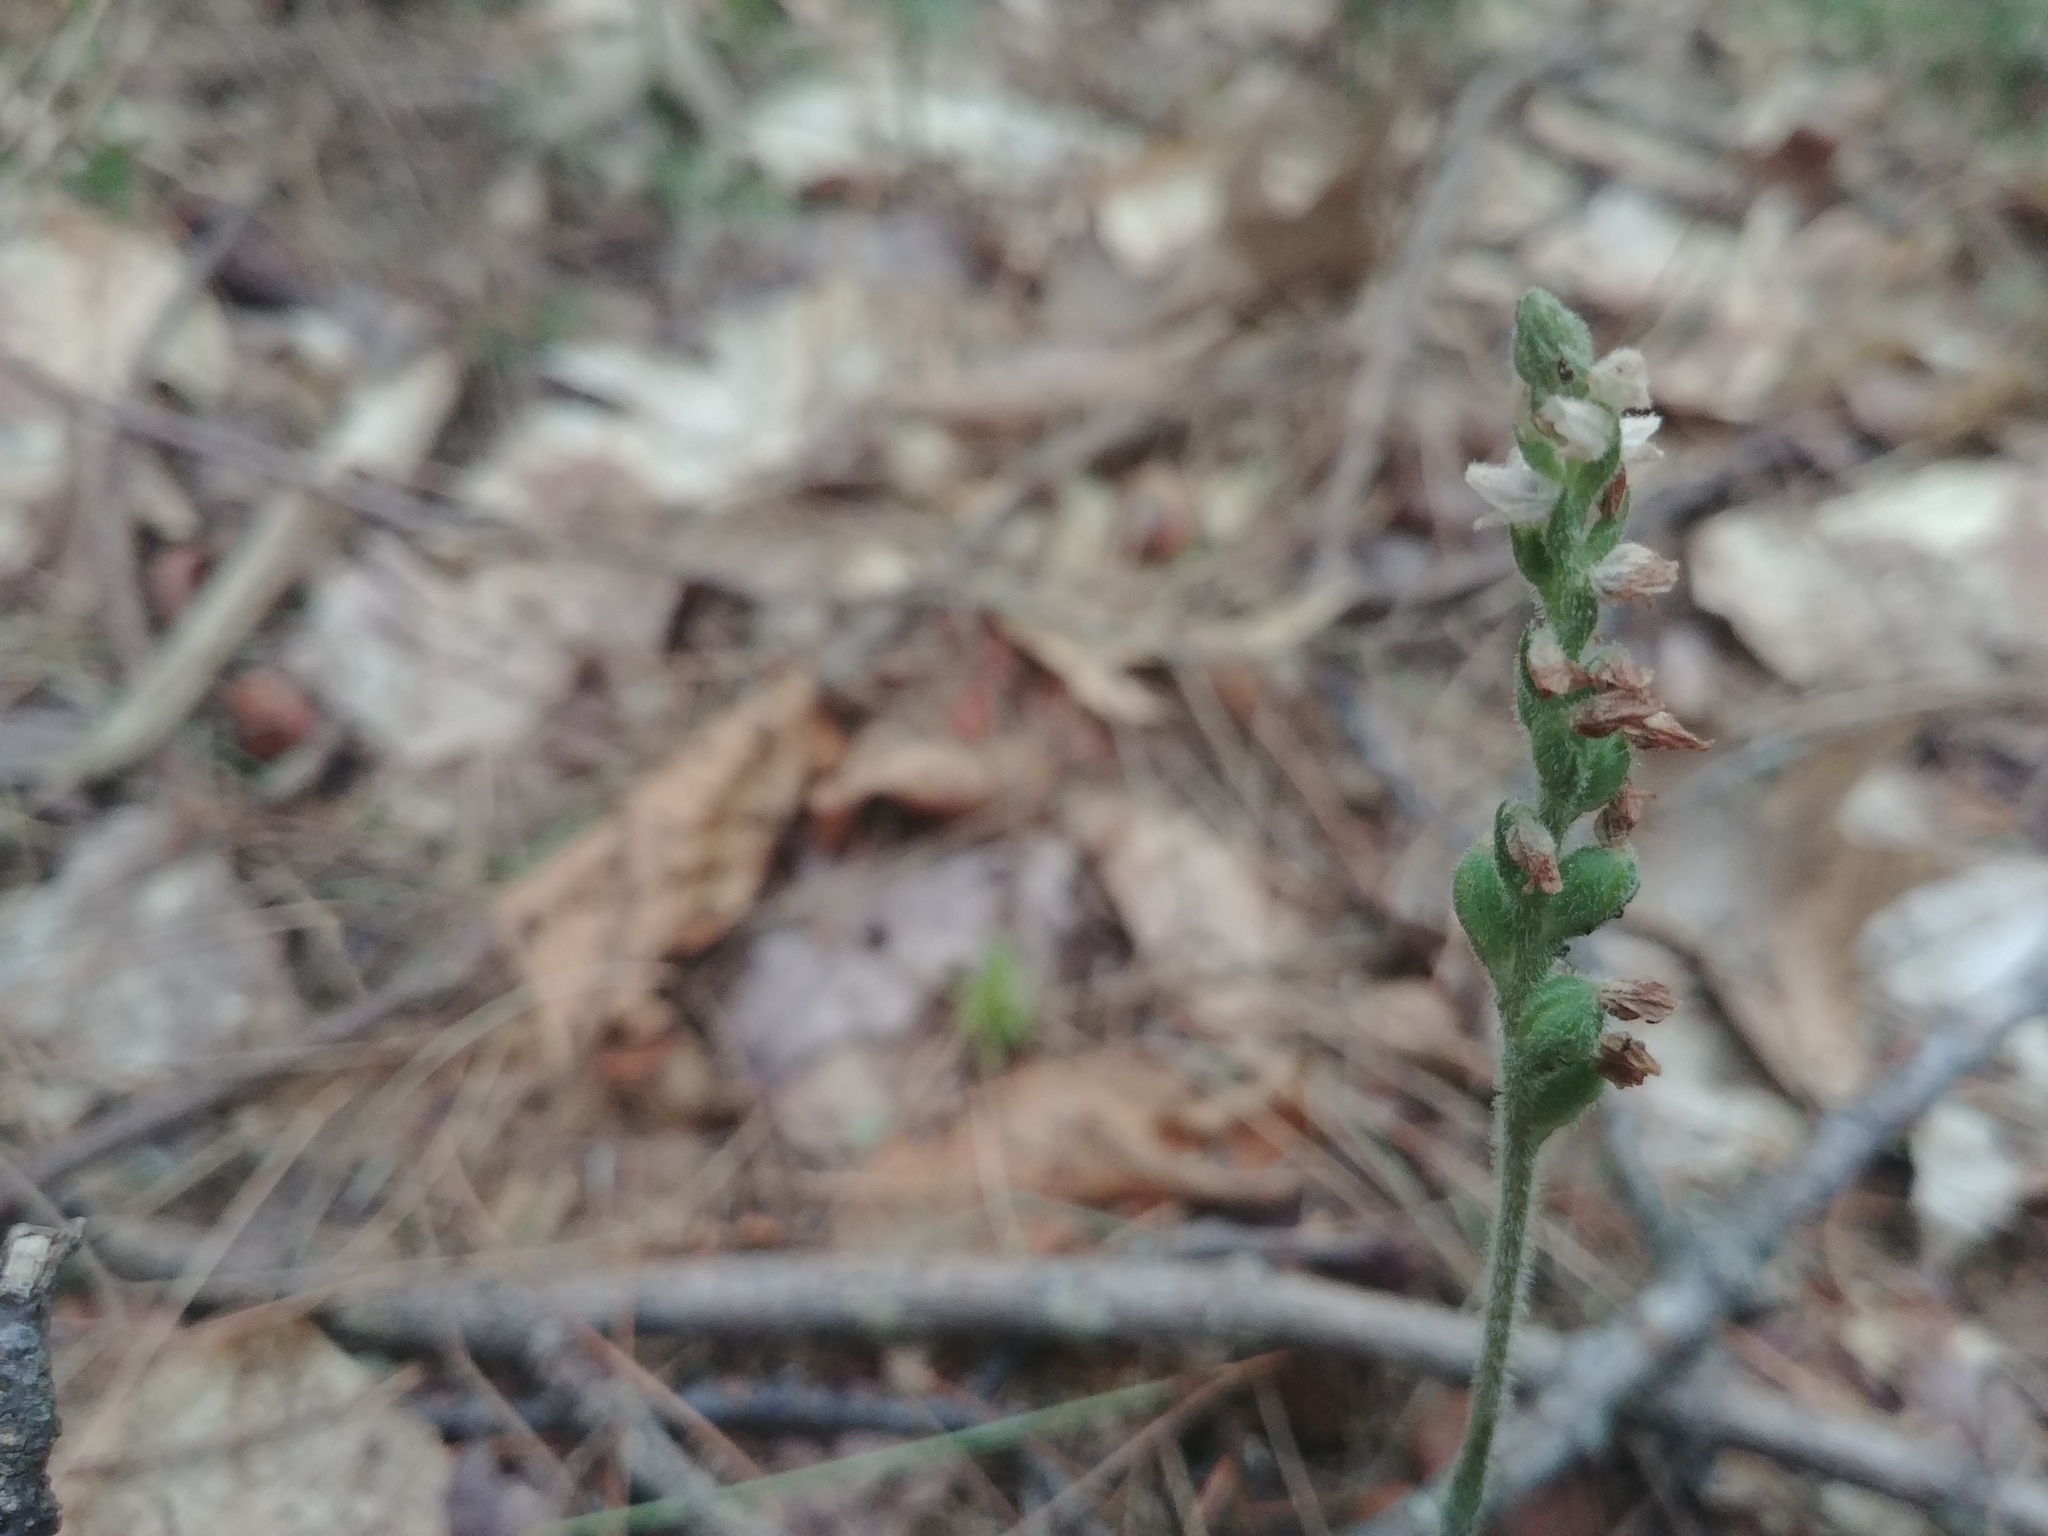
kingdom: Plantae
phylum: Tracheophyta
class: Liliopsida
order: Asparagales
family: Orchidaceae
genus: Goodyera
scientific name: Goodyera tesselata
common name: Checkered rattlesnake-plantain
